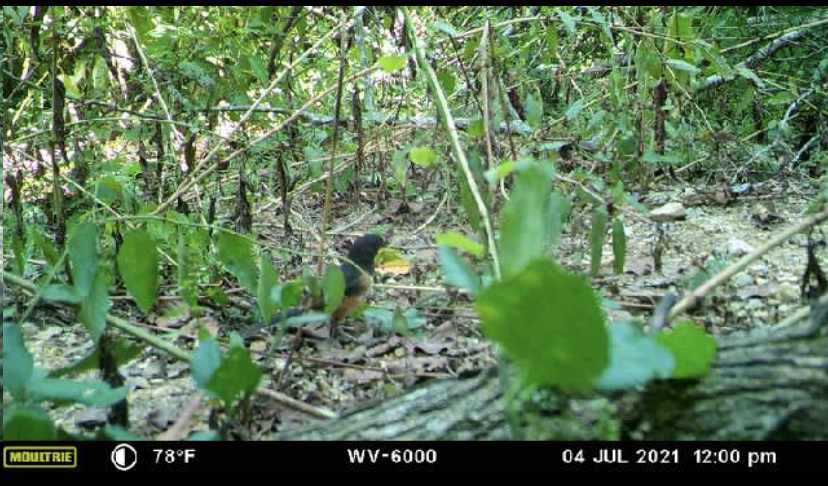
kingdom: Animalia
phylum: Chordata
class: Aves
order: Passeriformes
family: Passerellidae
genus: Pipilo
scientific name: Pipilo erythrophthalmus
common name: Eastern towhee
